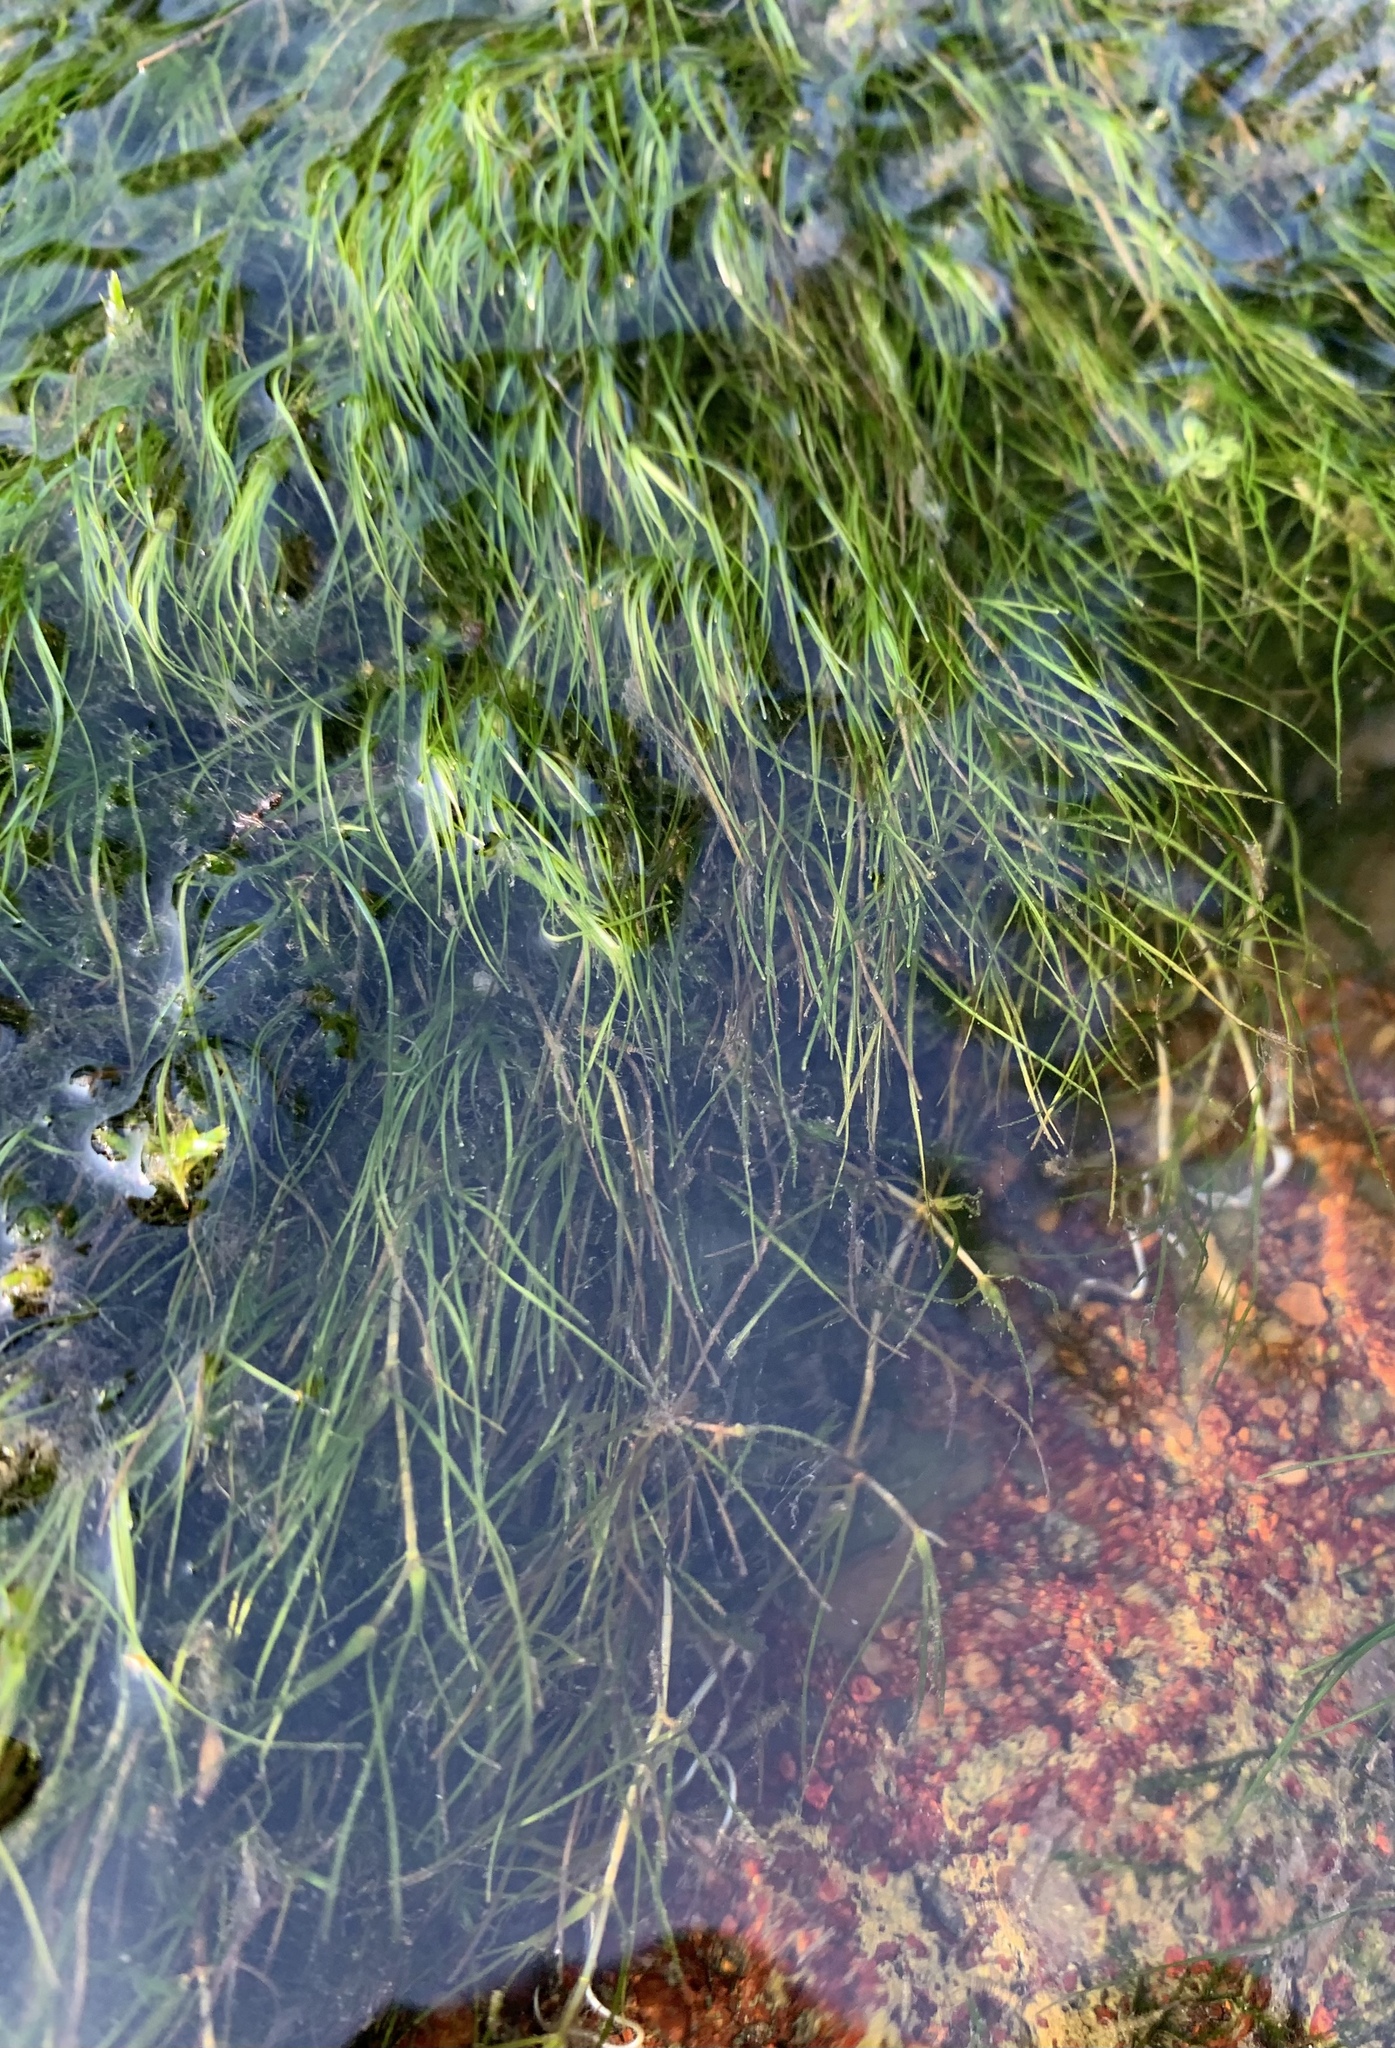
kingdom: Plantae
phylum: Tracheophyta
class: Liliopsida
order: Alismatales
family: Potamogetonaceae
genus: Zannichellia
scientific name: Zannichellia palustris
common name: Horned pondweed
